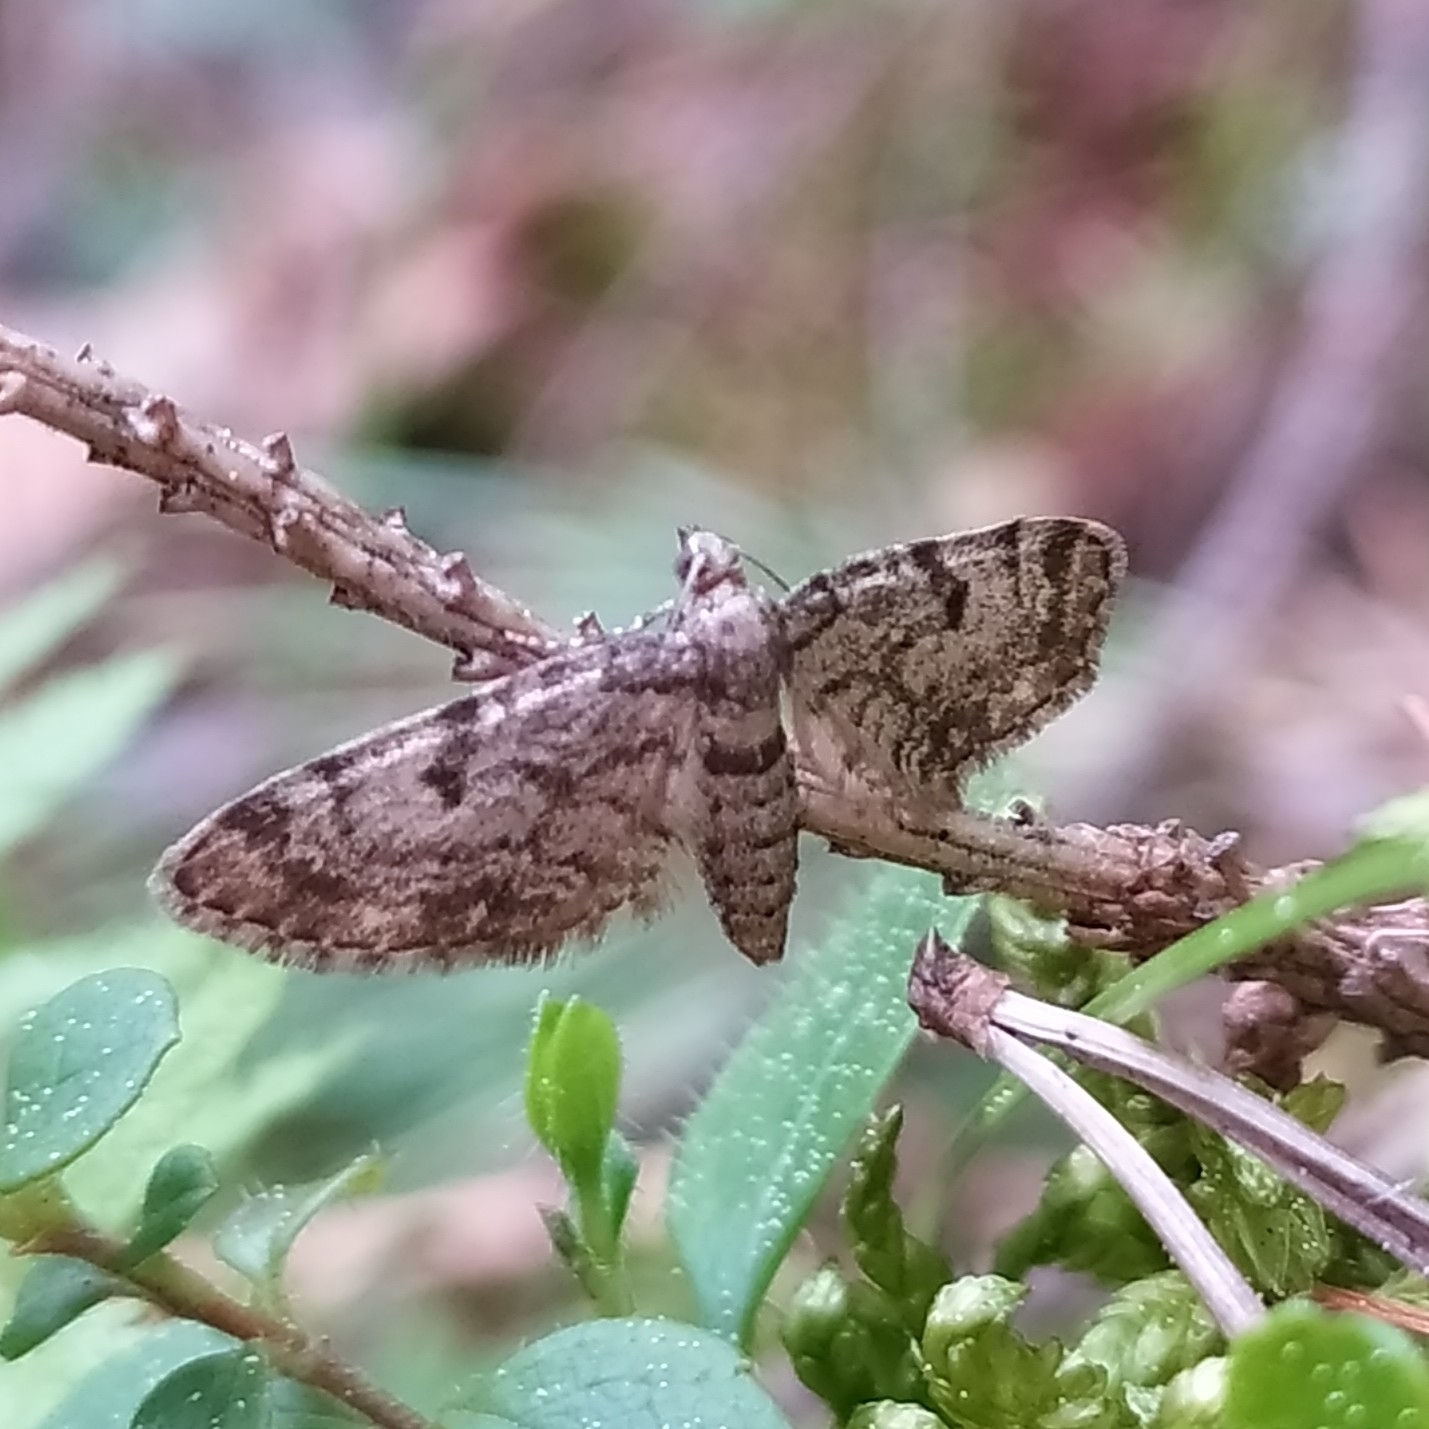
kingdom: Animalia
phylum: Arthropoda
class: Insecta
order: Lepidoptera
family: Geometridae
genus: Eupithecia
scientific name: Eupithecia tantillaria
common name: Dwarf pug
